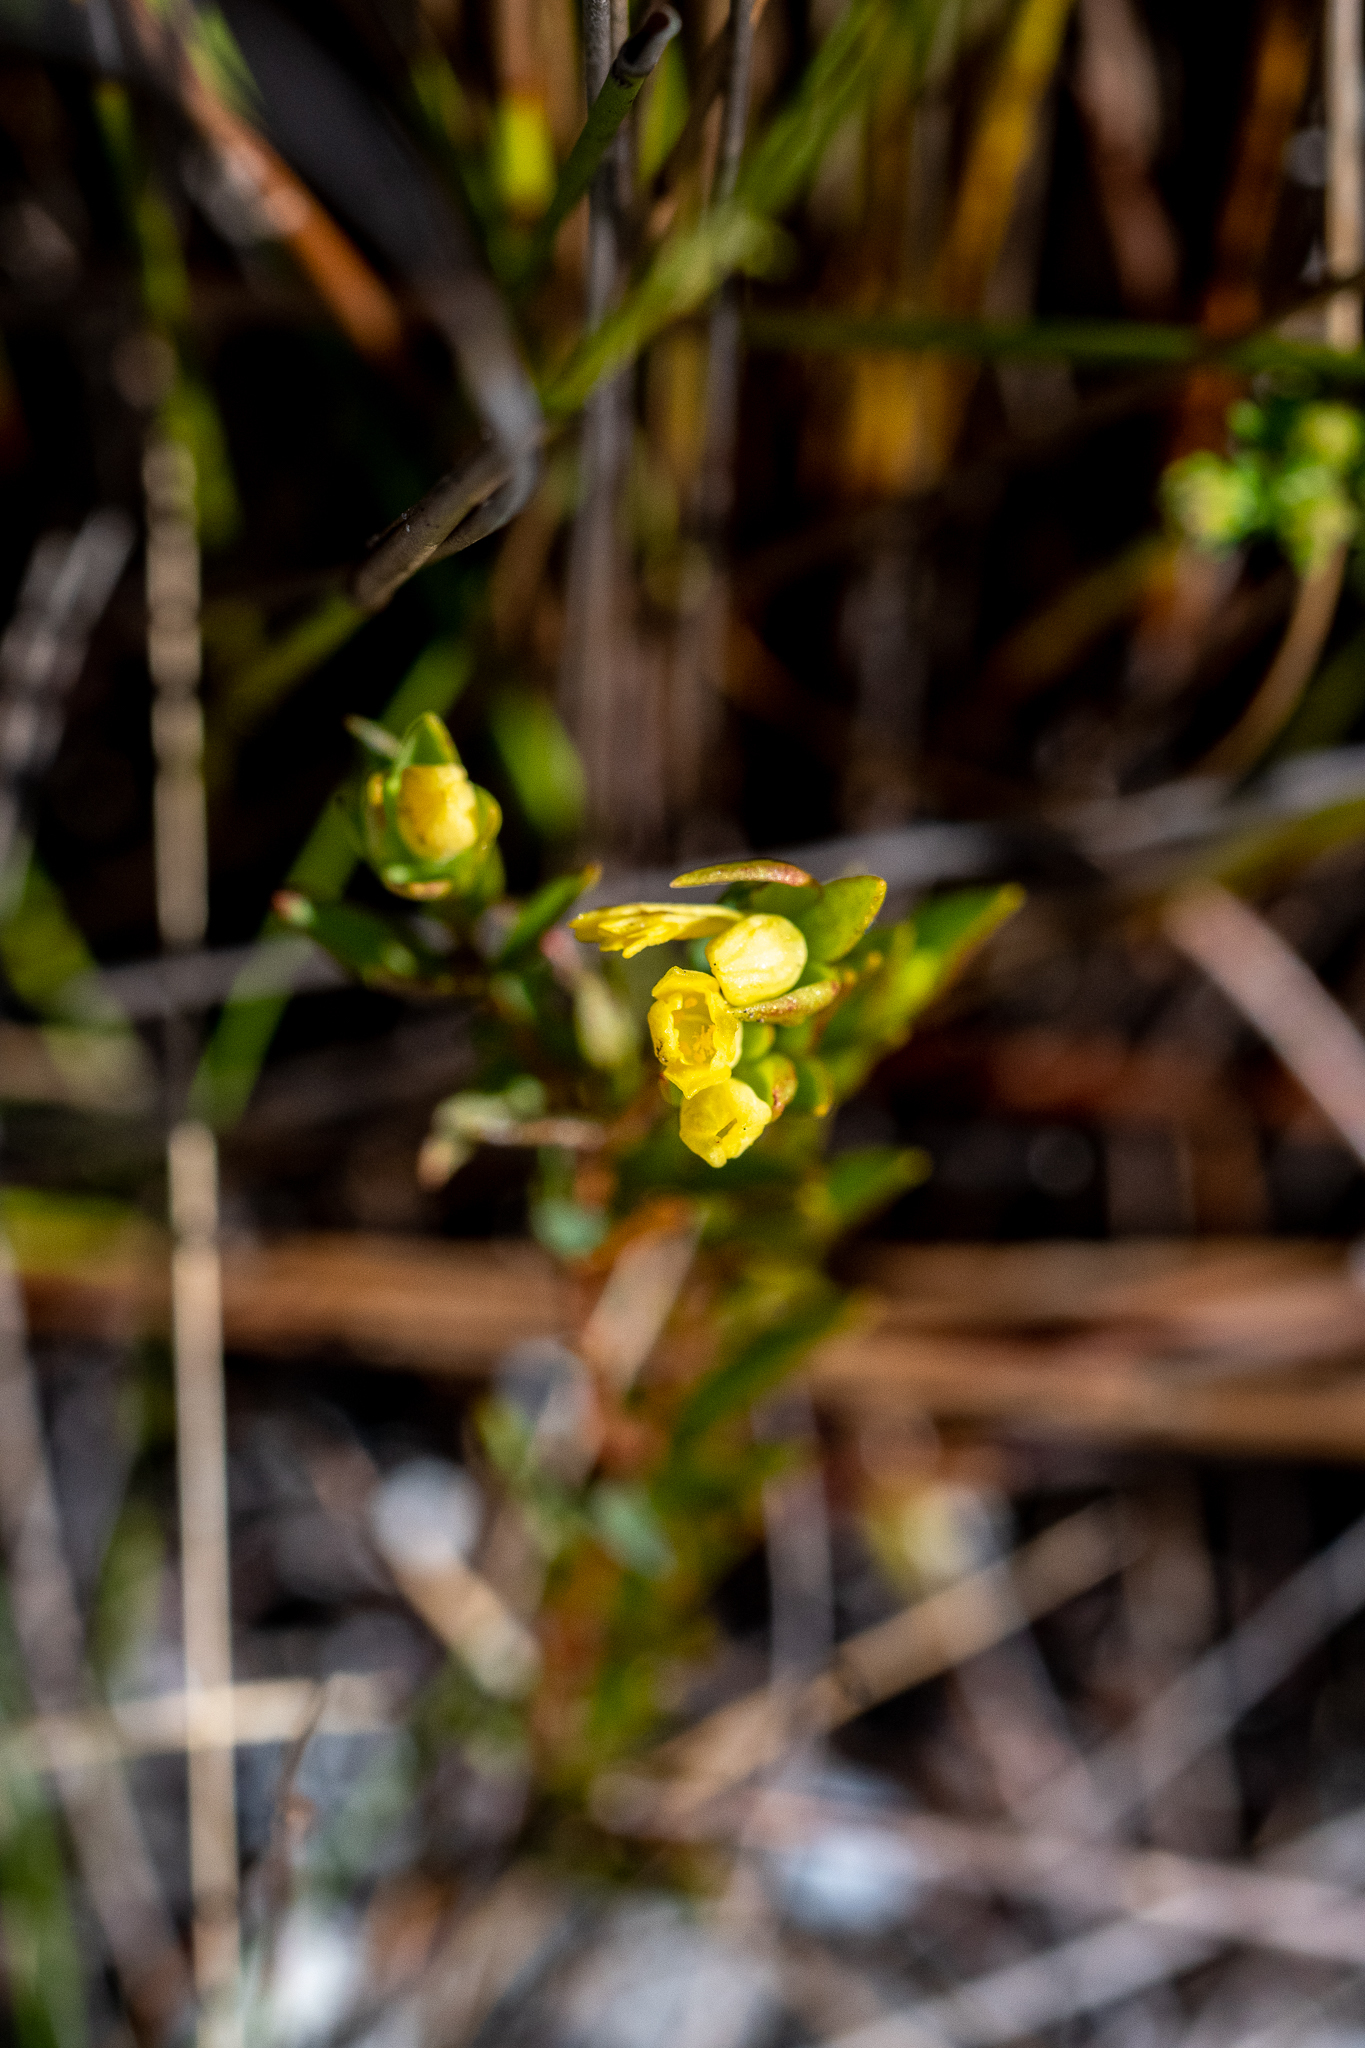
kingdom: Plantae
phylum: Tracheophyta
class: Magnoliopsida
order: Malvales
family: Thymelaeaceae
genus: Gnidia
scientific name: Gnidia juniperifolia
